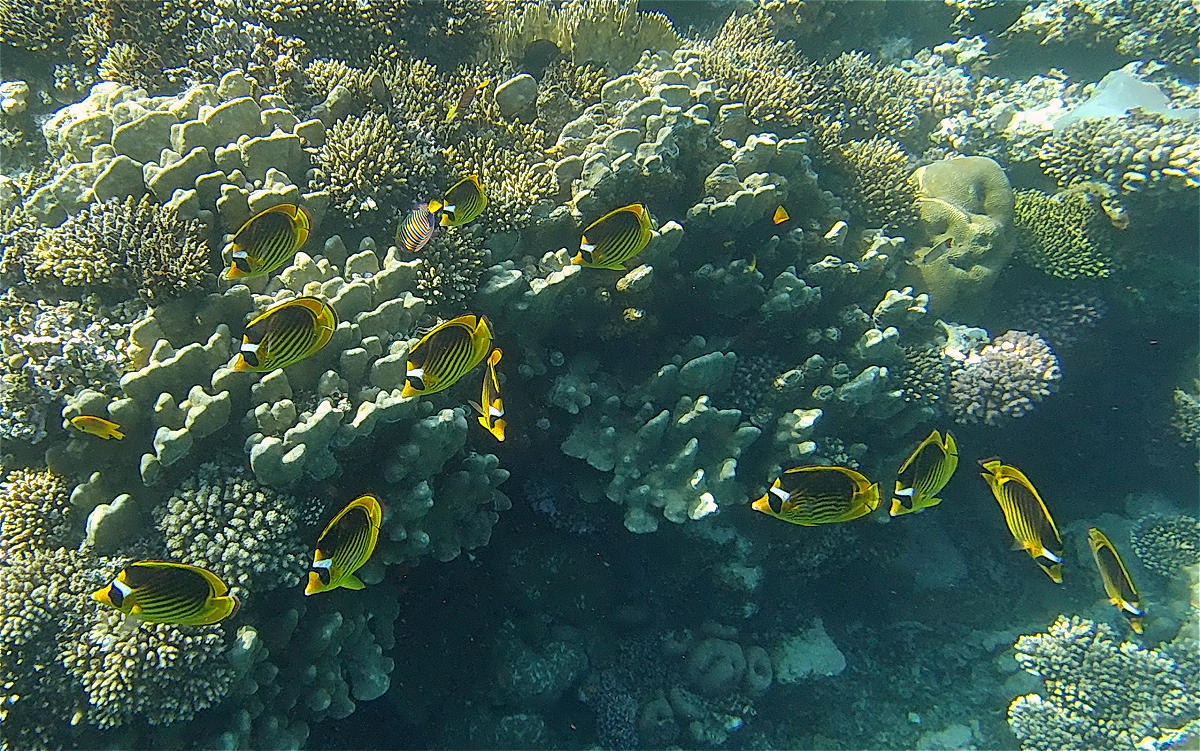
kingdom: Animalia
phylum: Chordata
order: Perciformes
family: Chaetodontidae
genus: Chaetodon
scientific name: Chaetodon fasciatus
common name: Diagonal butterflyfish
